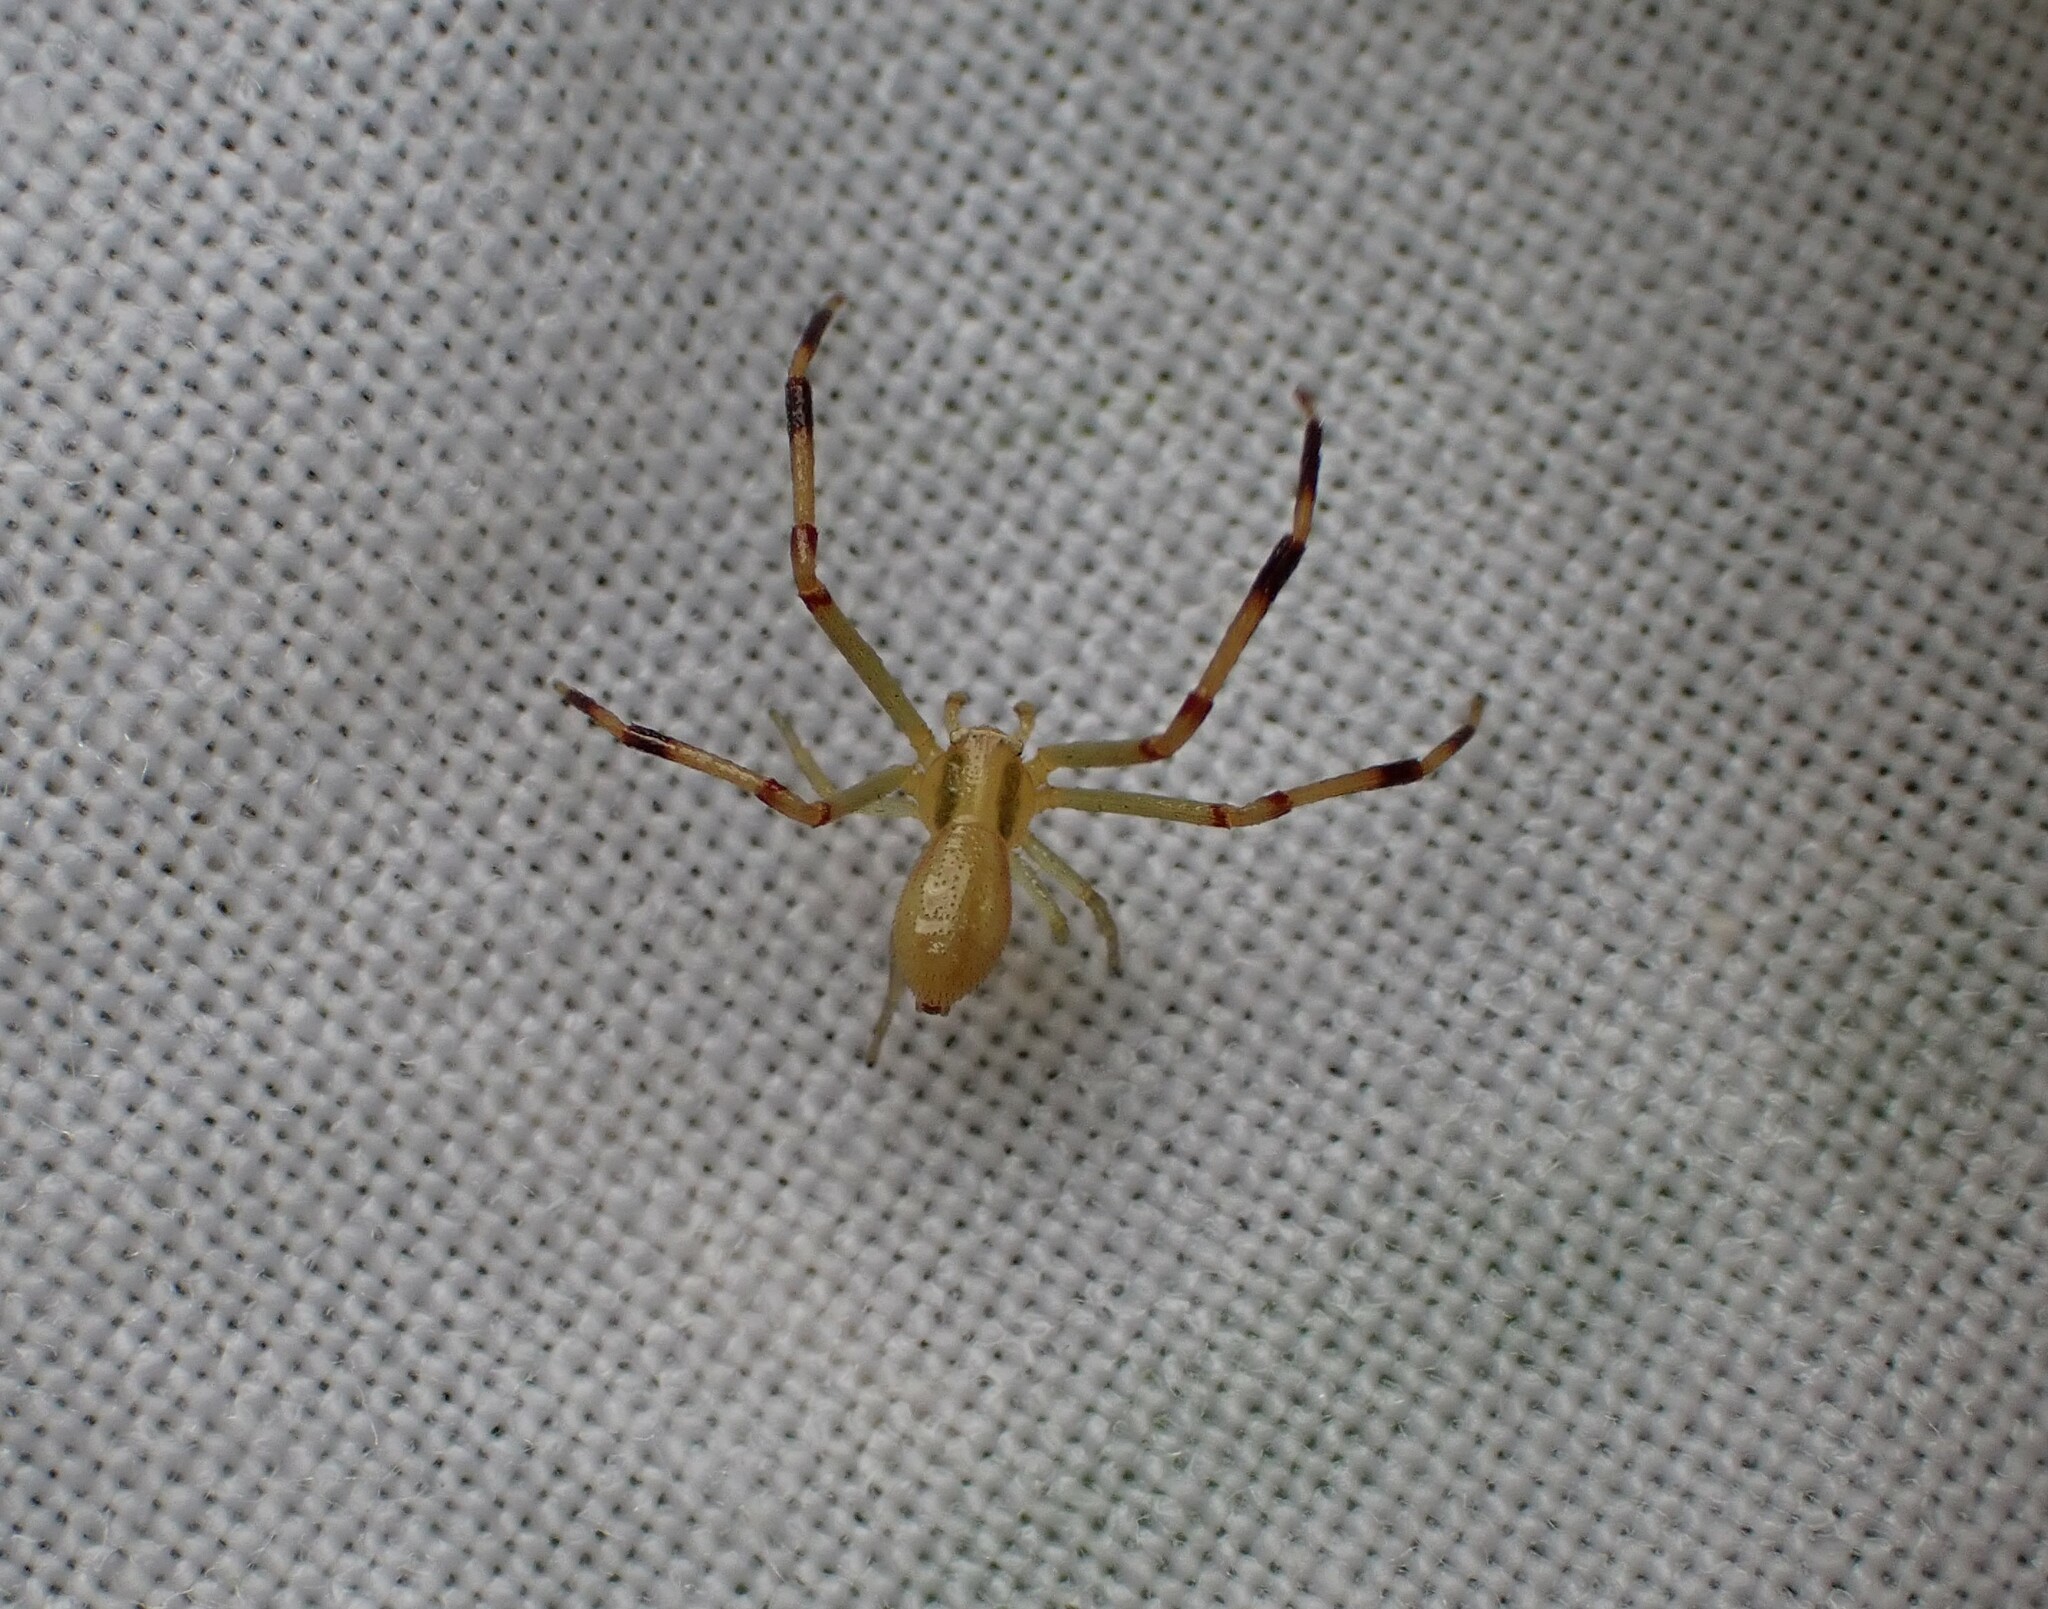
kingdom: Animalia
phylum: Arthropoda
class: Arachnida
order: Araneae
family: Thomisidae
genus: Runcinia
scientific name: Runcinia grammica
